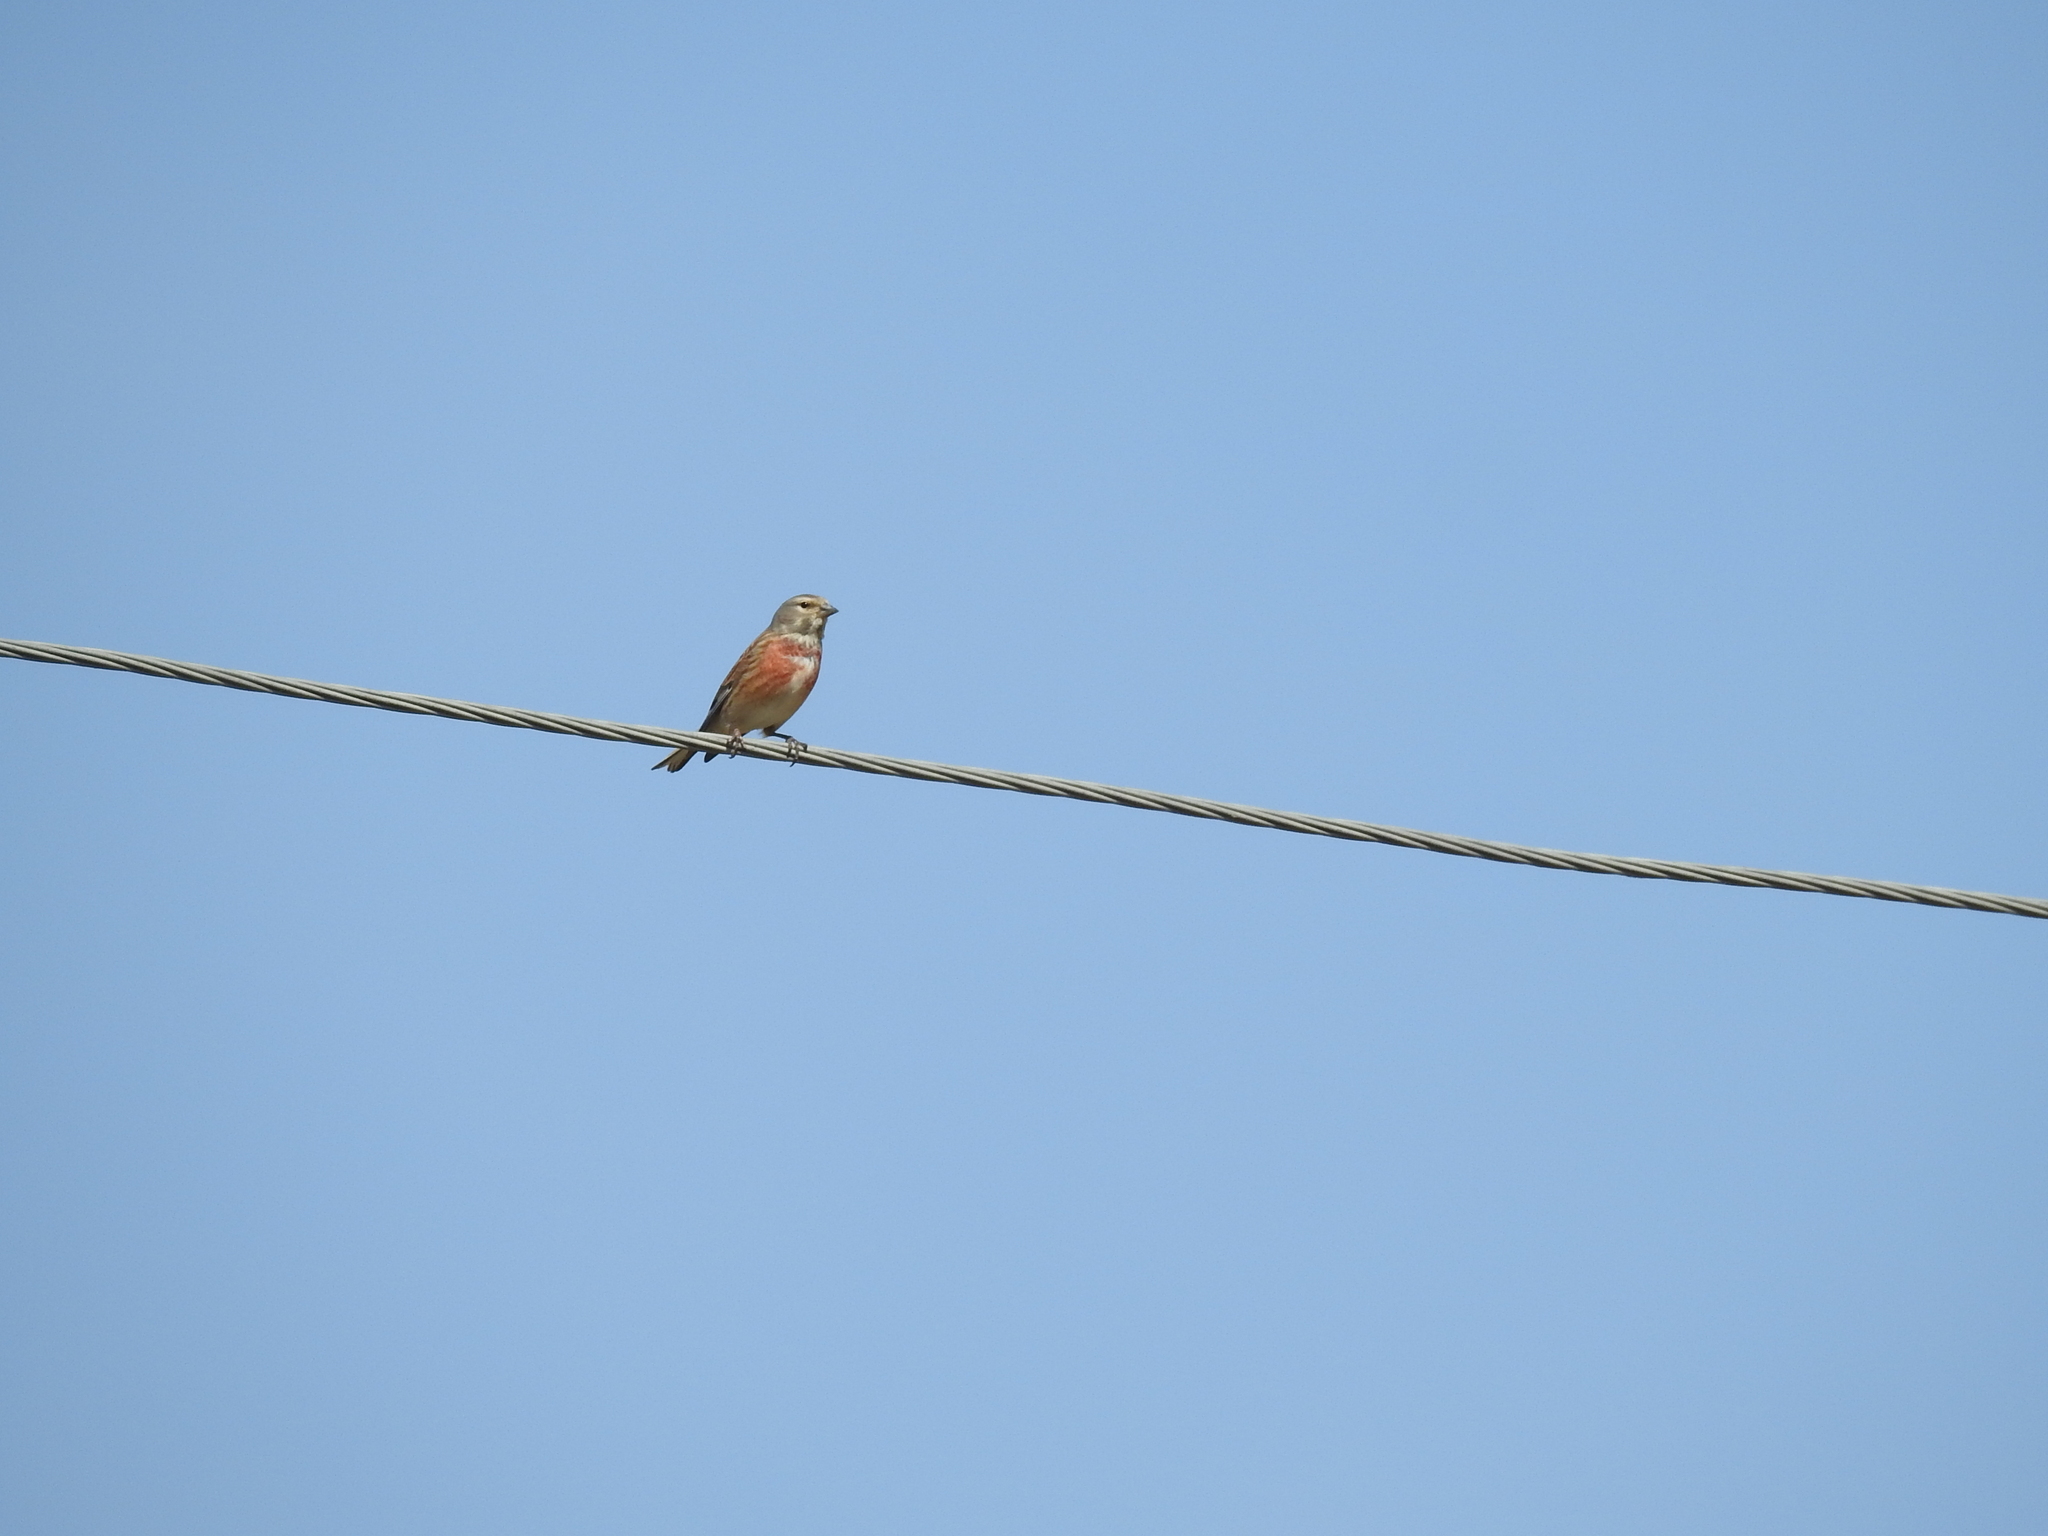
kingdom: Animalia
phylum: Chordata
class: Aves
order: Passeriformes
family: Fringillidae
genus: Linaria
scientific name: Linaria cannabina
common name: Common linnet
